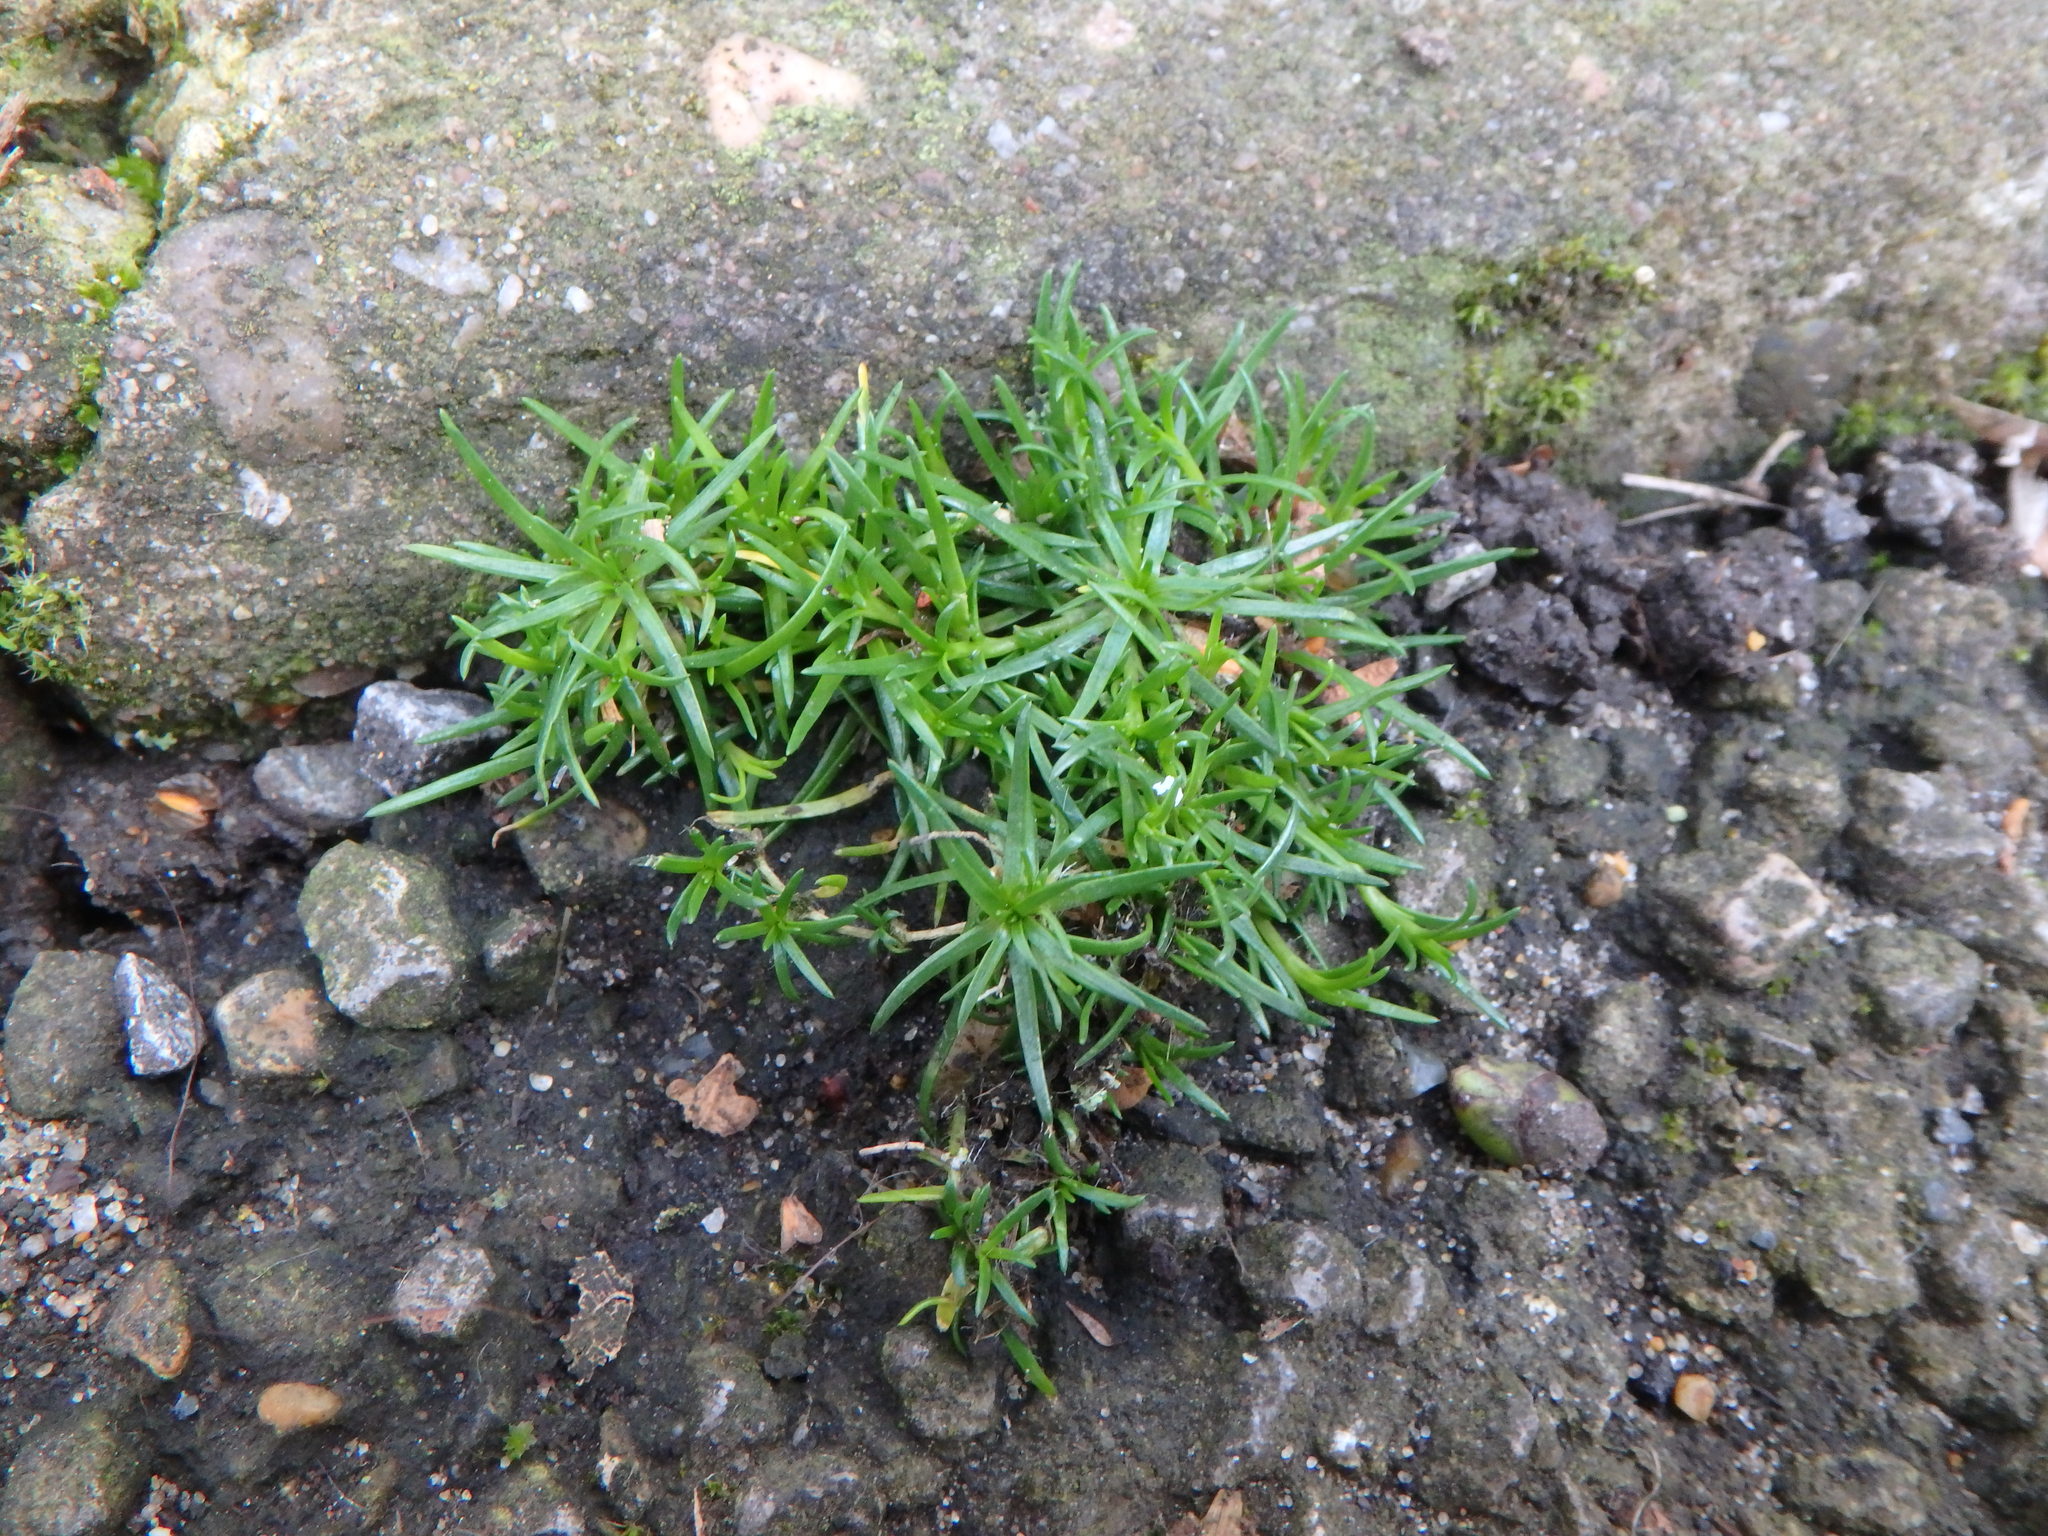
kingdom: Plantae
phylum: Tracheophyta
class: Magnoliopsida
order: Caryophyllales
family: Caryophyllaceae
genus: Sagina
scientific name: Sagina procumbens
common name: Procumbent pearlwort
